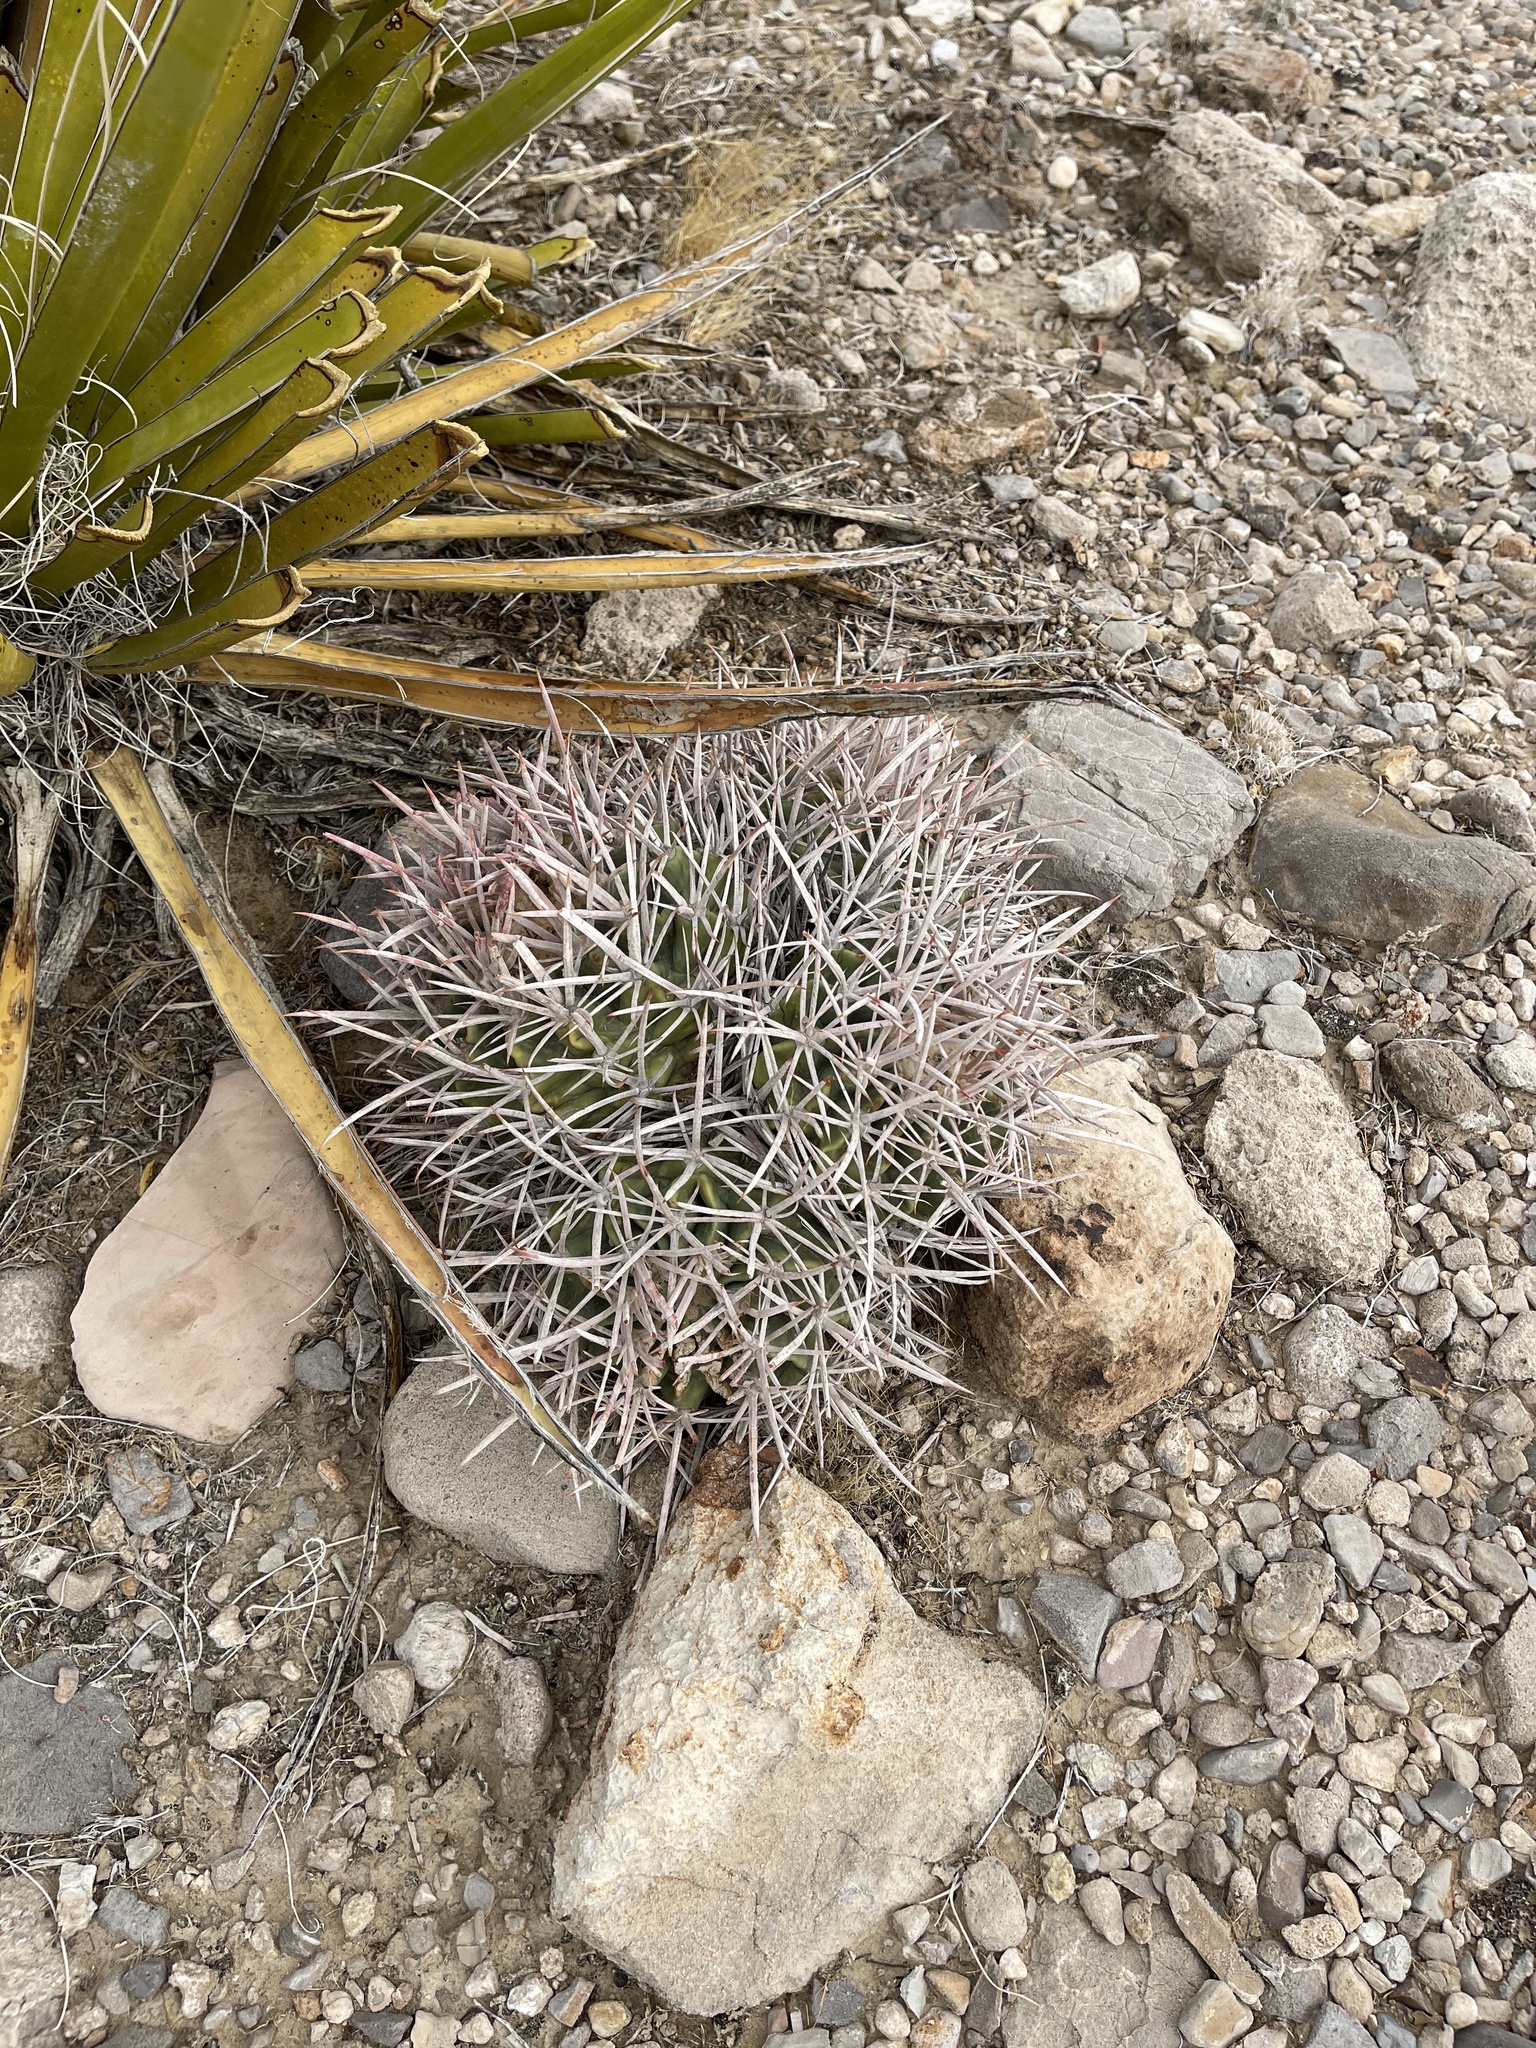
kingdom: Plantae
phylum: Tracheophyta
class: Magnoliopsida
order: Caryophyllales
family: Cactaceae
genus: Echinocactus
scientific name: Echinocactus polycephalus
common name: Cottontop cactus
